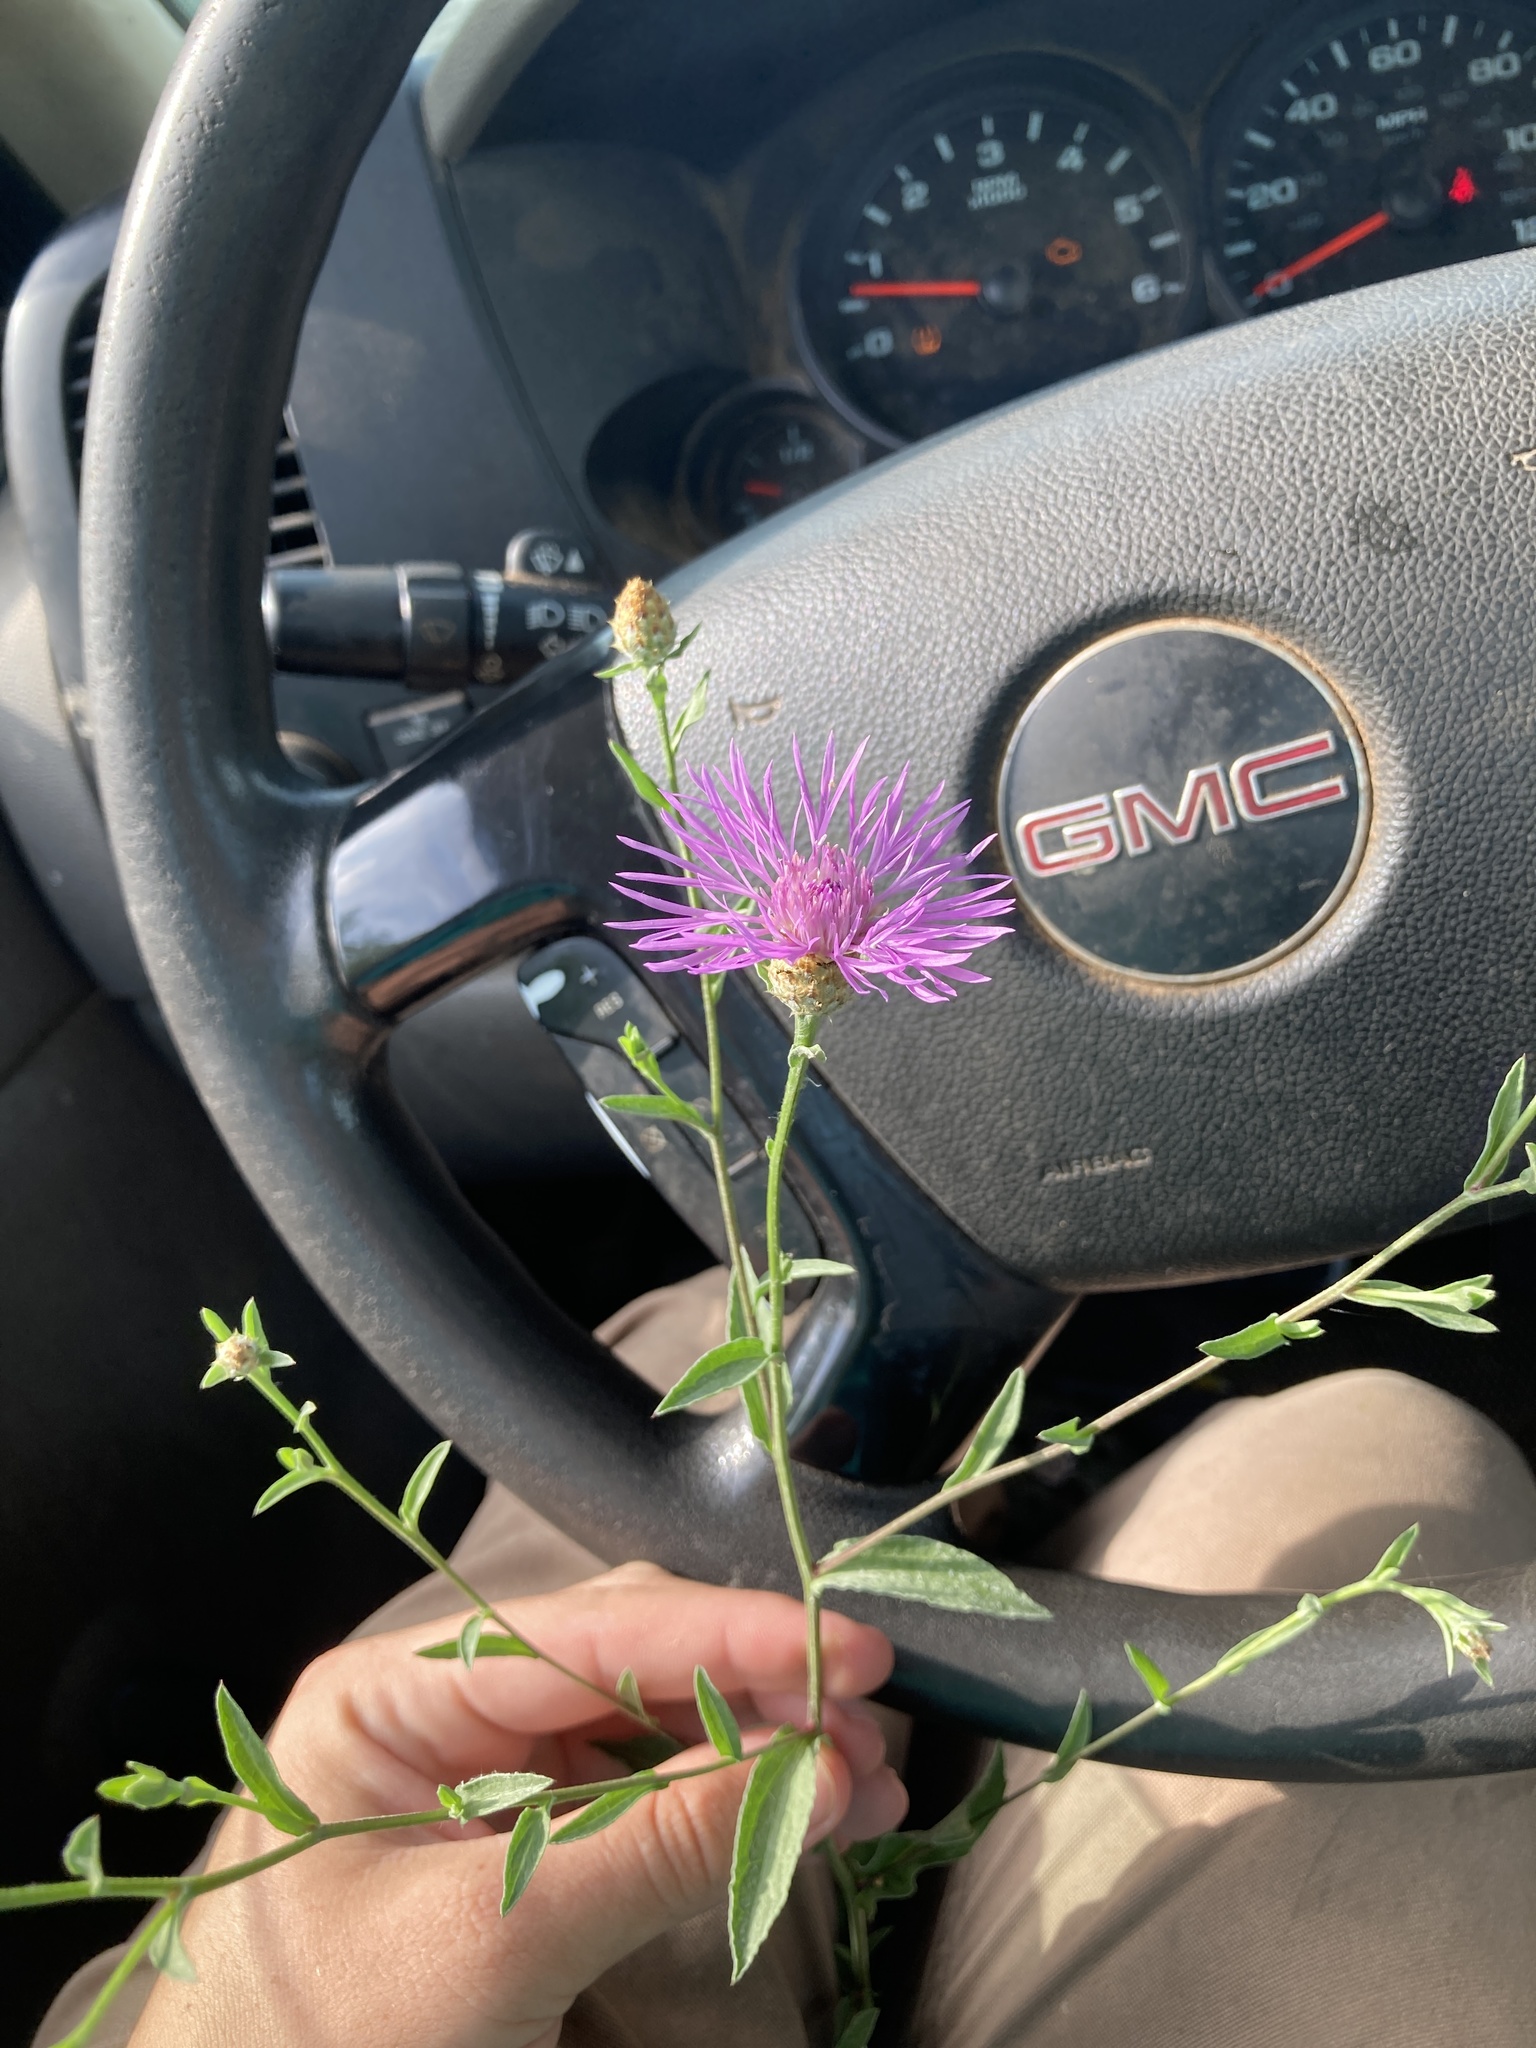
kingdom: Plantae
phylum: Tracheophyta
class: Magnoliopsida
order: Asterales
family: Asteraceae
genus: Centaurea
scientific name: Centaurea stoebe
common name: Spotted knapweed
